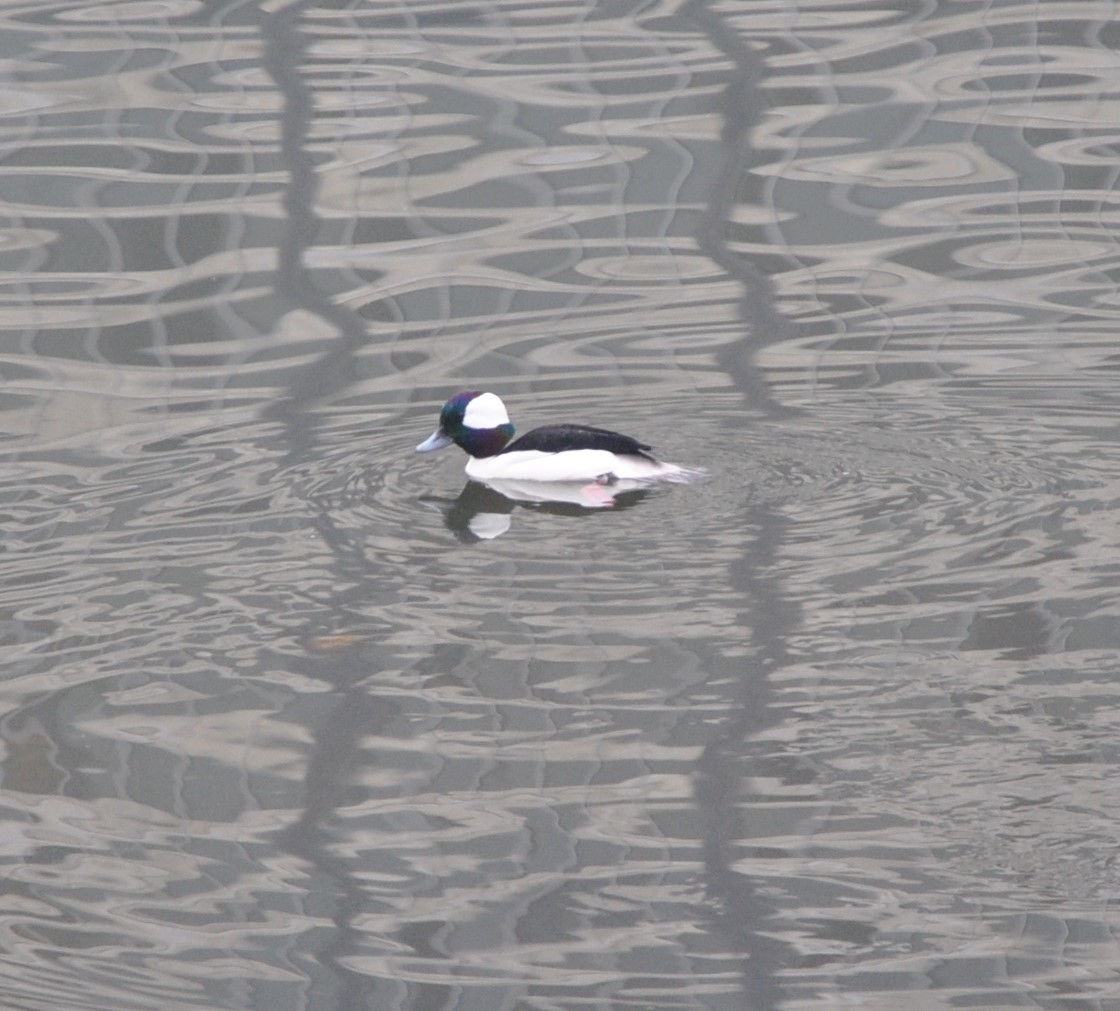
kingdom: Animalia
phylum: Chordata
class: Aves
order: Anseriformes
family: Anatidae
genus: Bucephala
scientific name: Bucephala albeola
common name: Bufflehead
